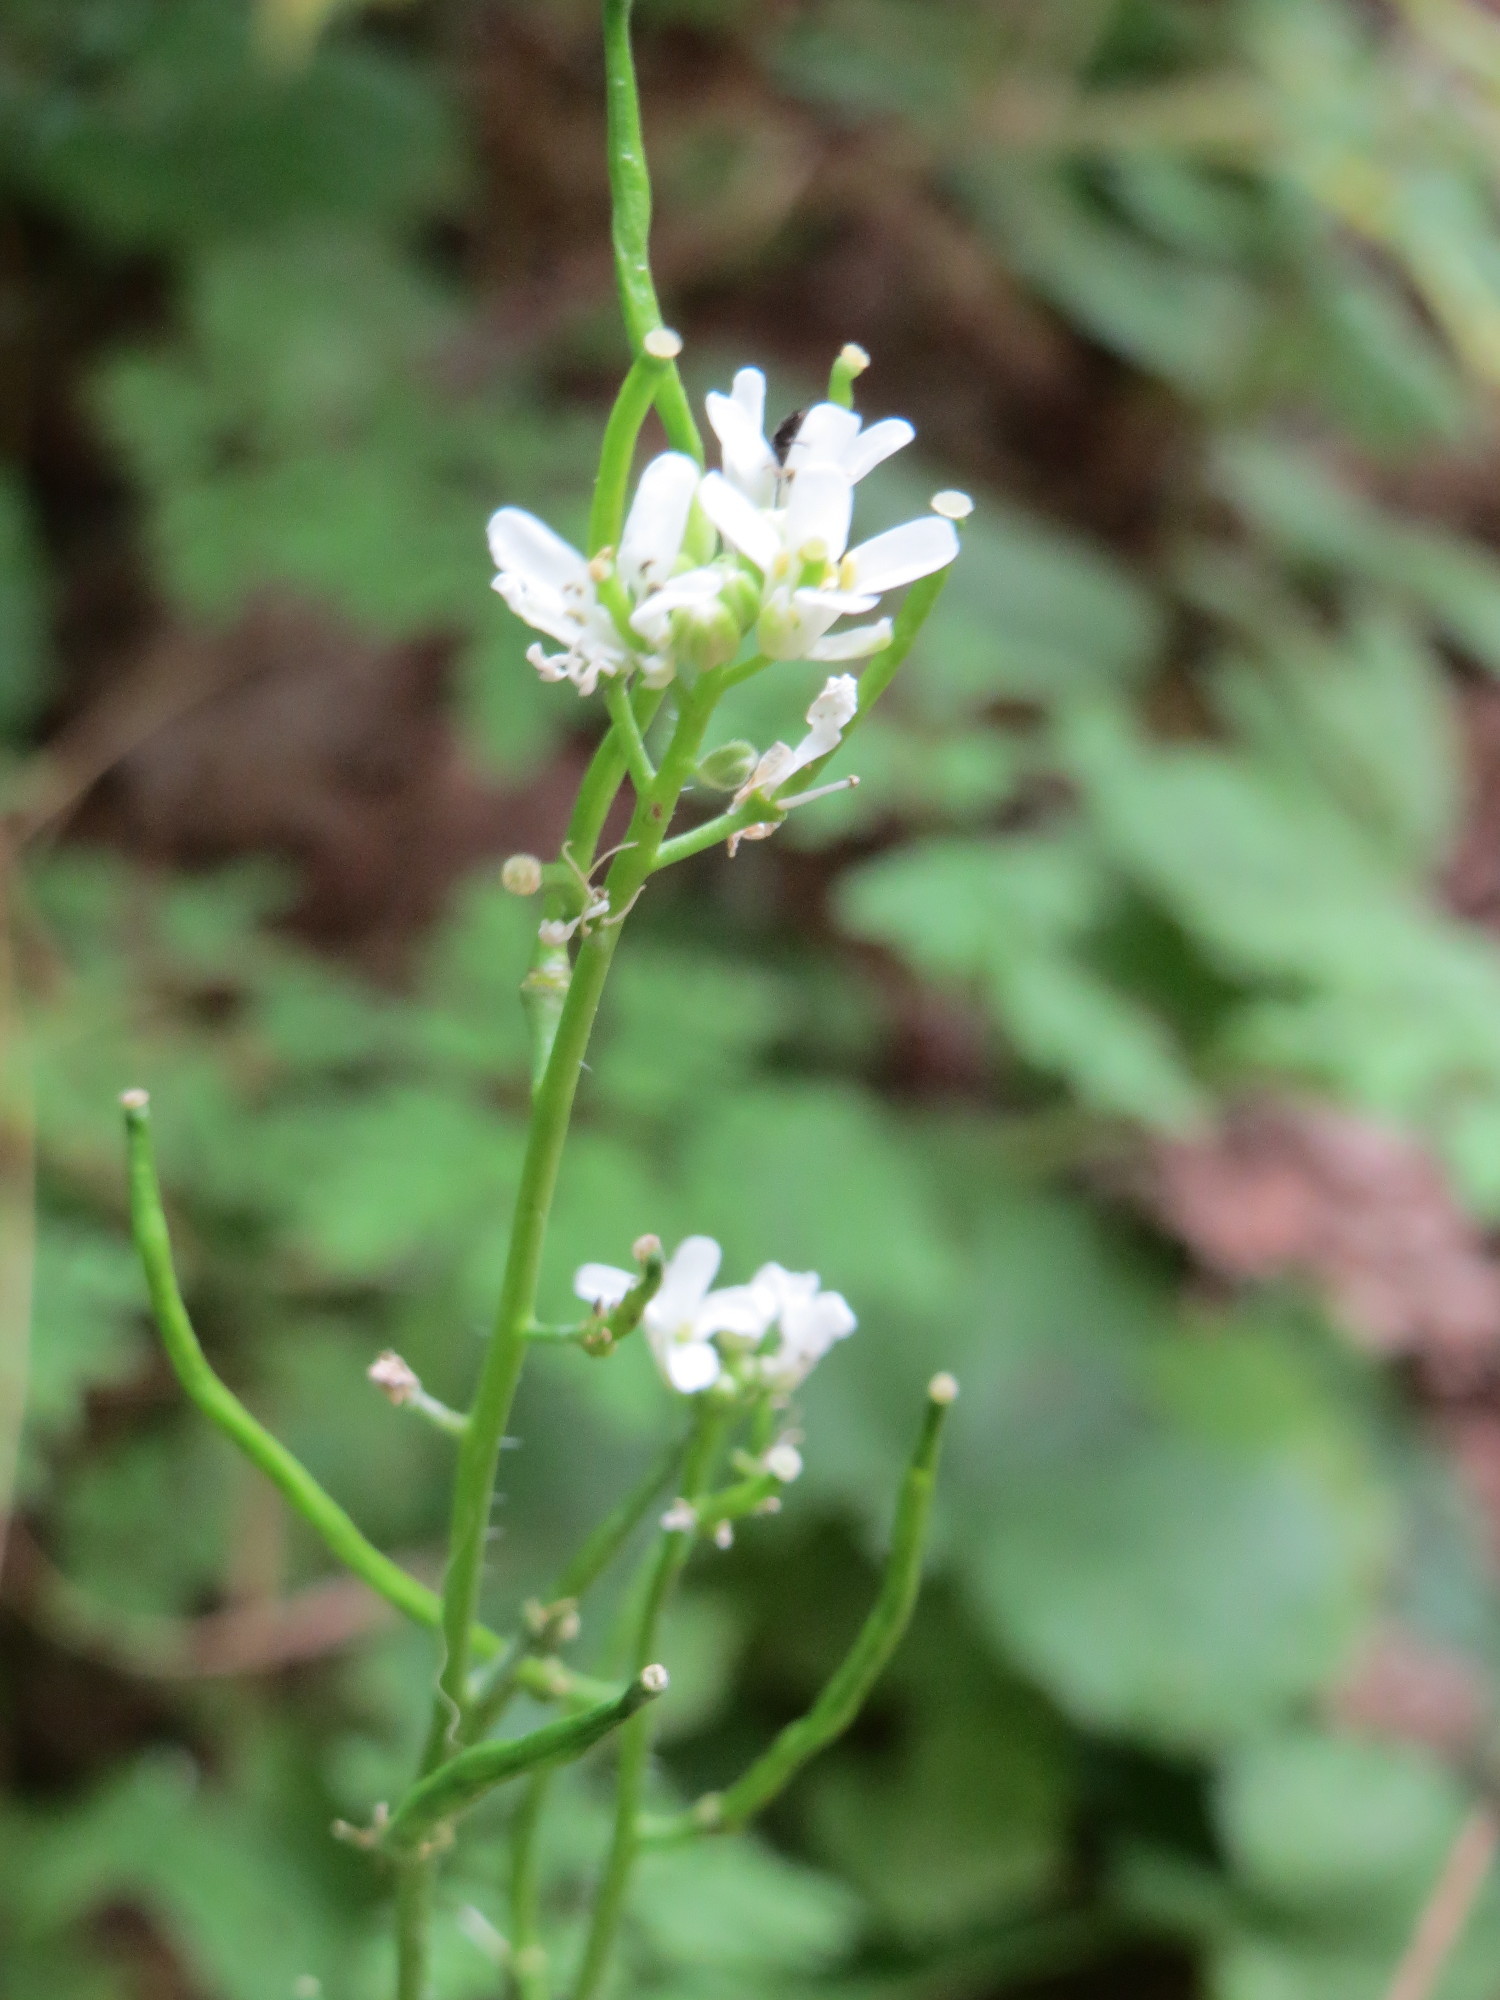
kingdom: Plantae
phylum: Tracheophyta
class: Magnoliopsida
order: Brassicales
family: Brassicaceae
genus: Alliaria
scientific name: Alliaria petiolata
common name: Garlic mustard
